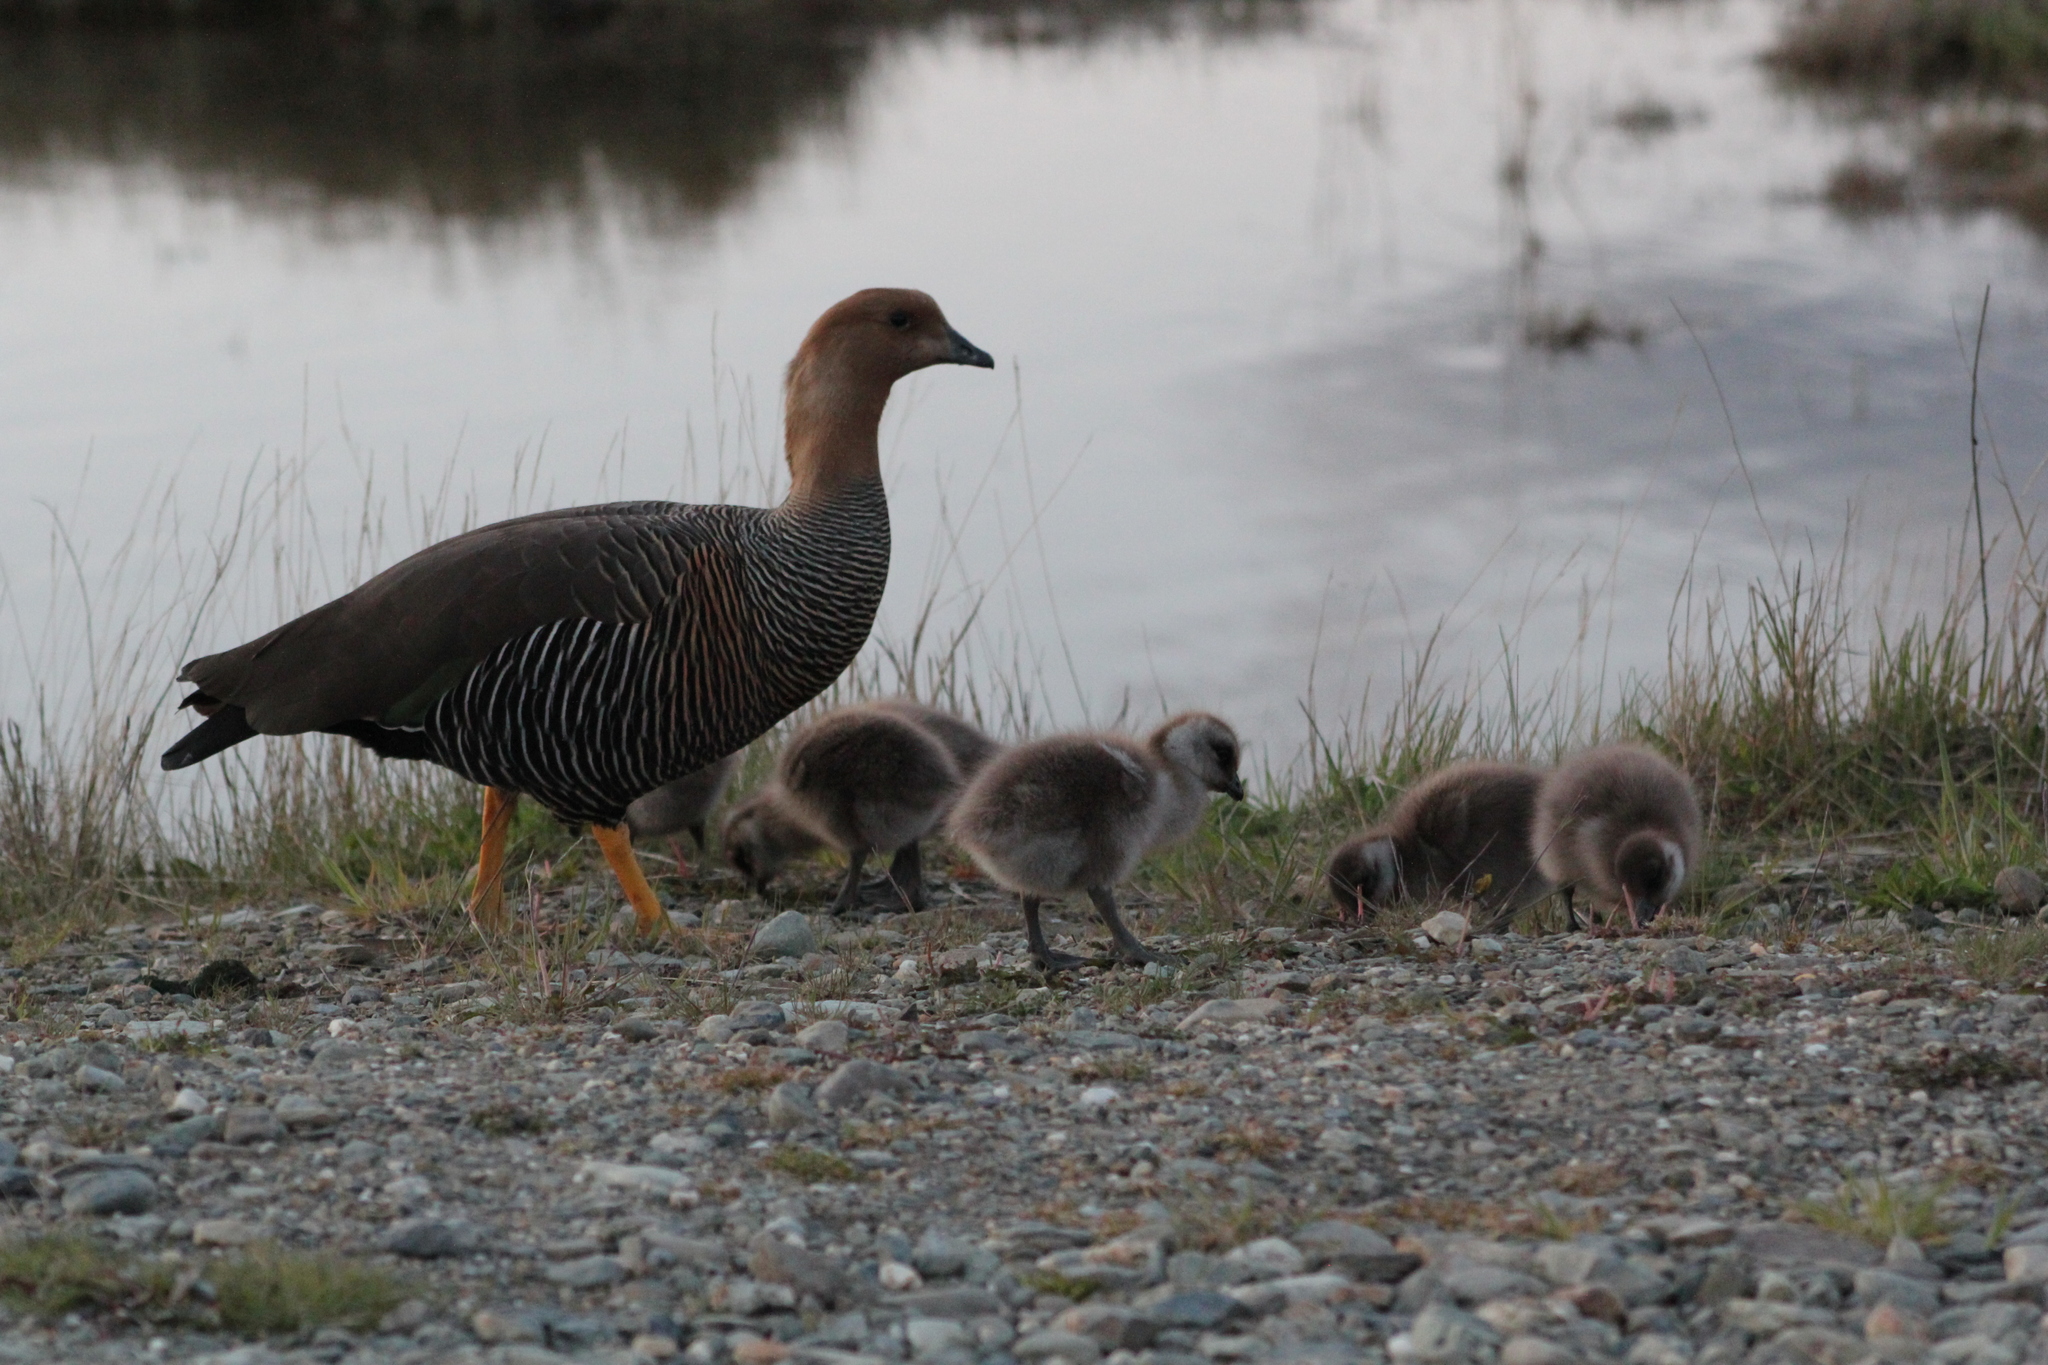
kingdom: Animalia
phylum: Chordata
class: Aves
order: Anseriformes
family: Anatidae
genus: Chloephaga
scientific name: Chloephaga picta
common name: Upland goose
